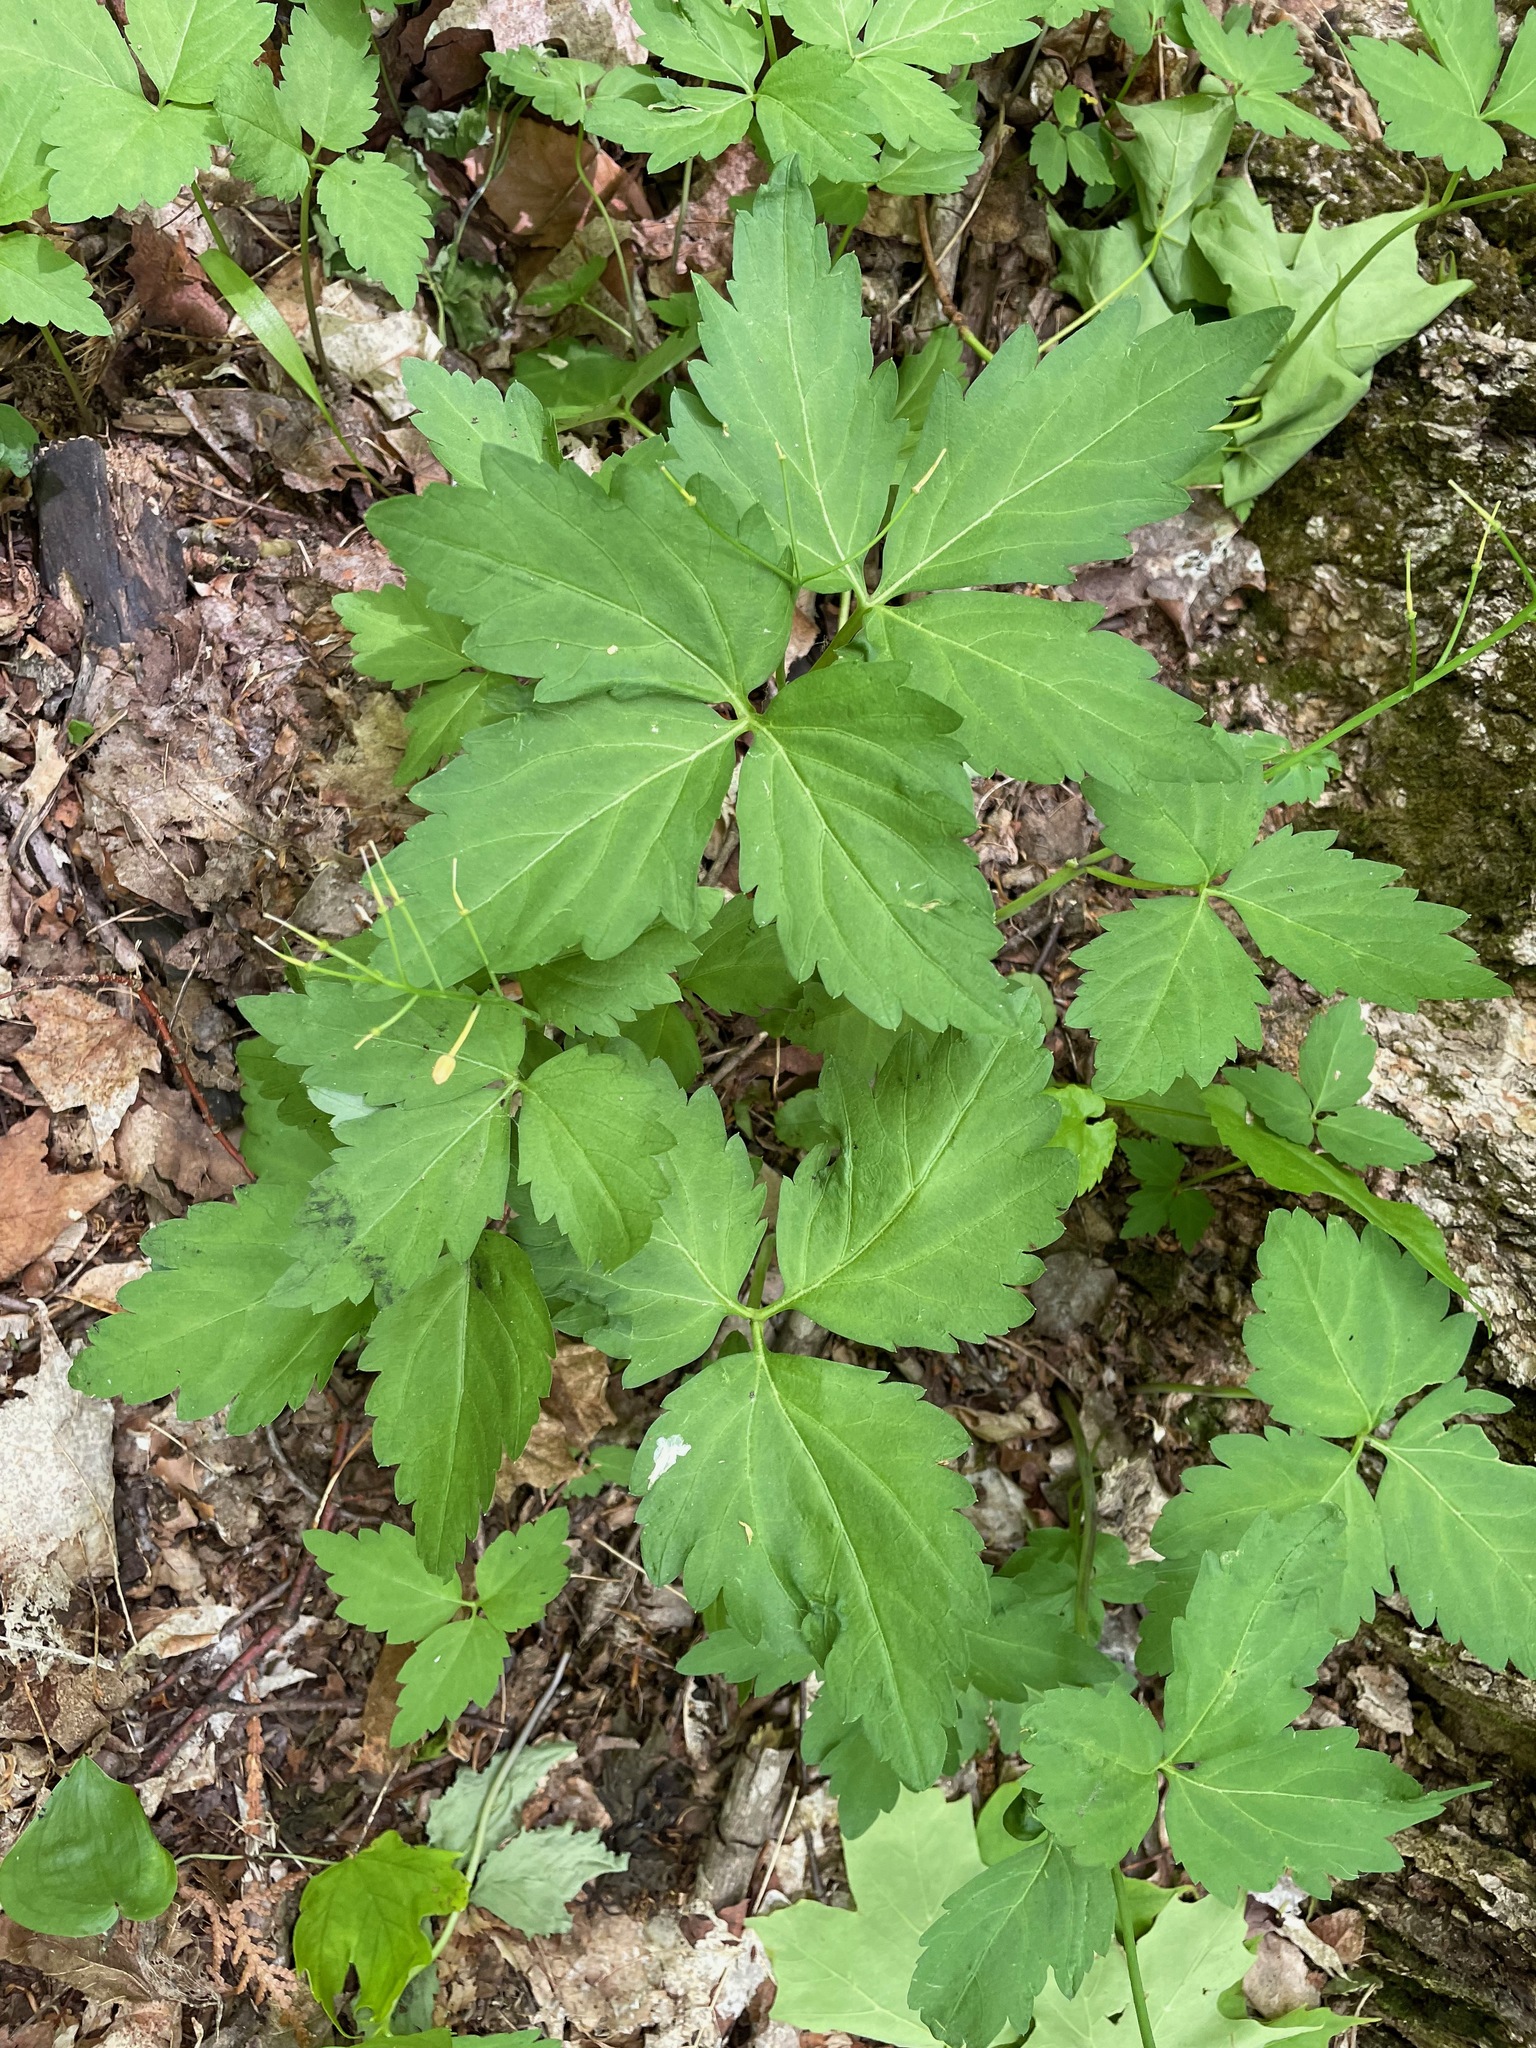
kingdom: Plantae
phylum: Tracheophyta
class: Magnoliopsida
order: Brassicales
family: Brassicaceae
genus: Cardamine
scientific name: Cardamine diphylla
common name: Broad-leaved toothwort
